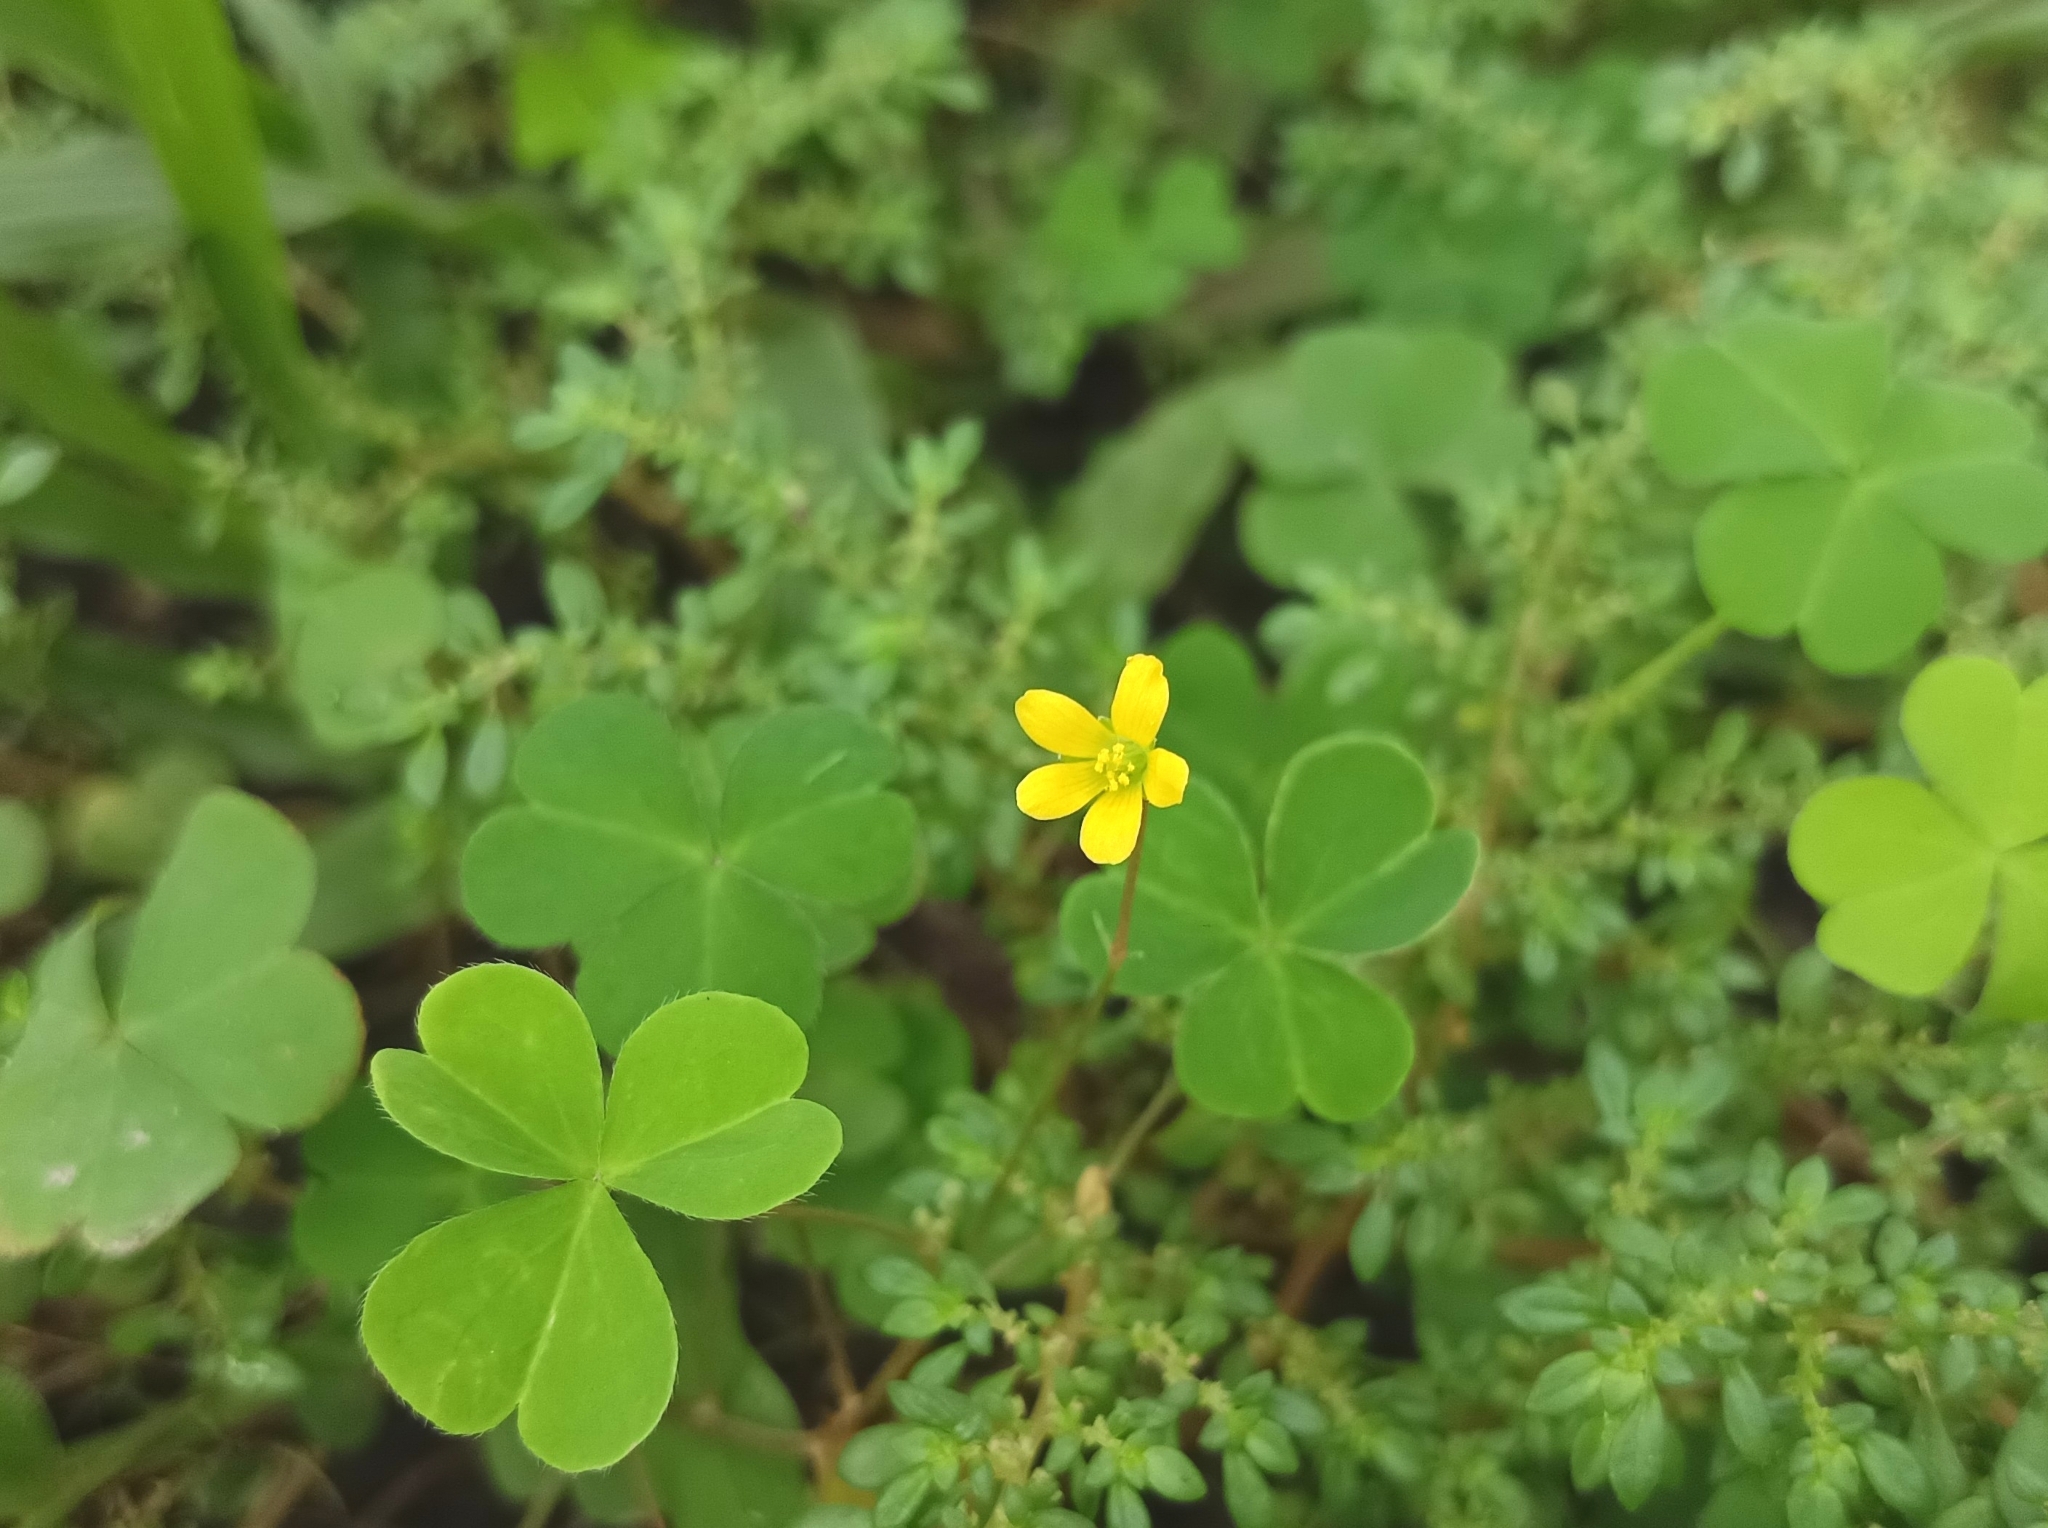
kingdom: Plantae
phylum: Tracheophyta
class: Magnoliopsida
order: Oxalidales
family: Oxalidaceae
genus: Oxalis
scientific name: Oxalis corniculata
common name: Procumbent yellow-sorrel
